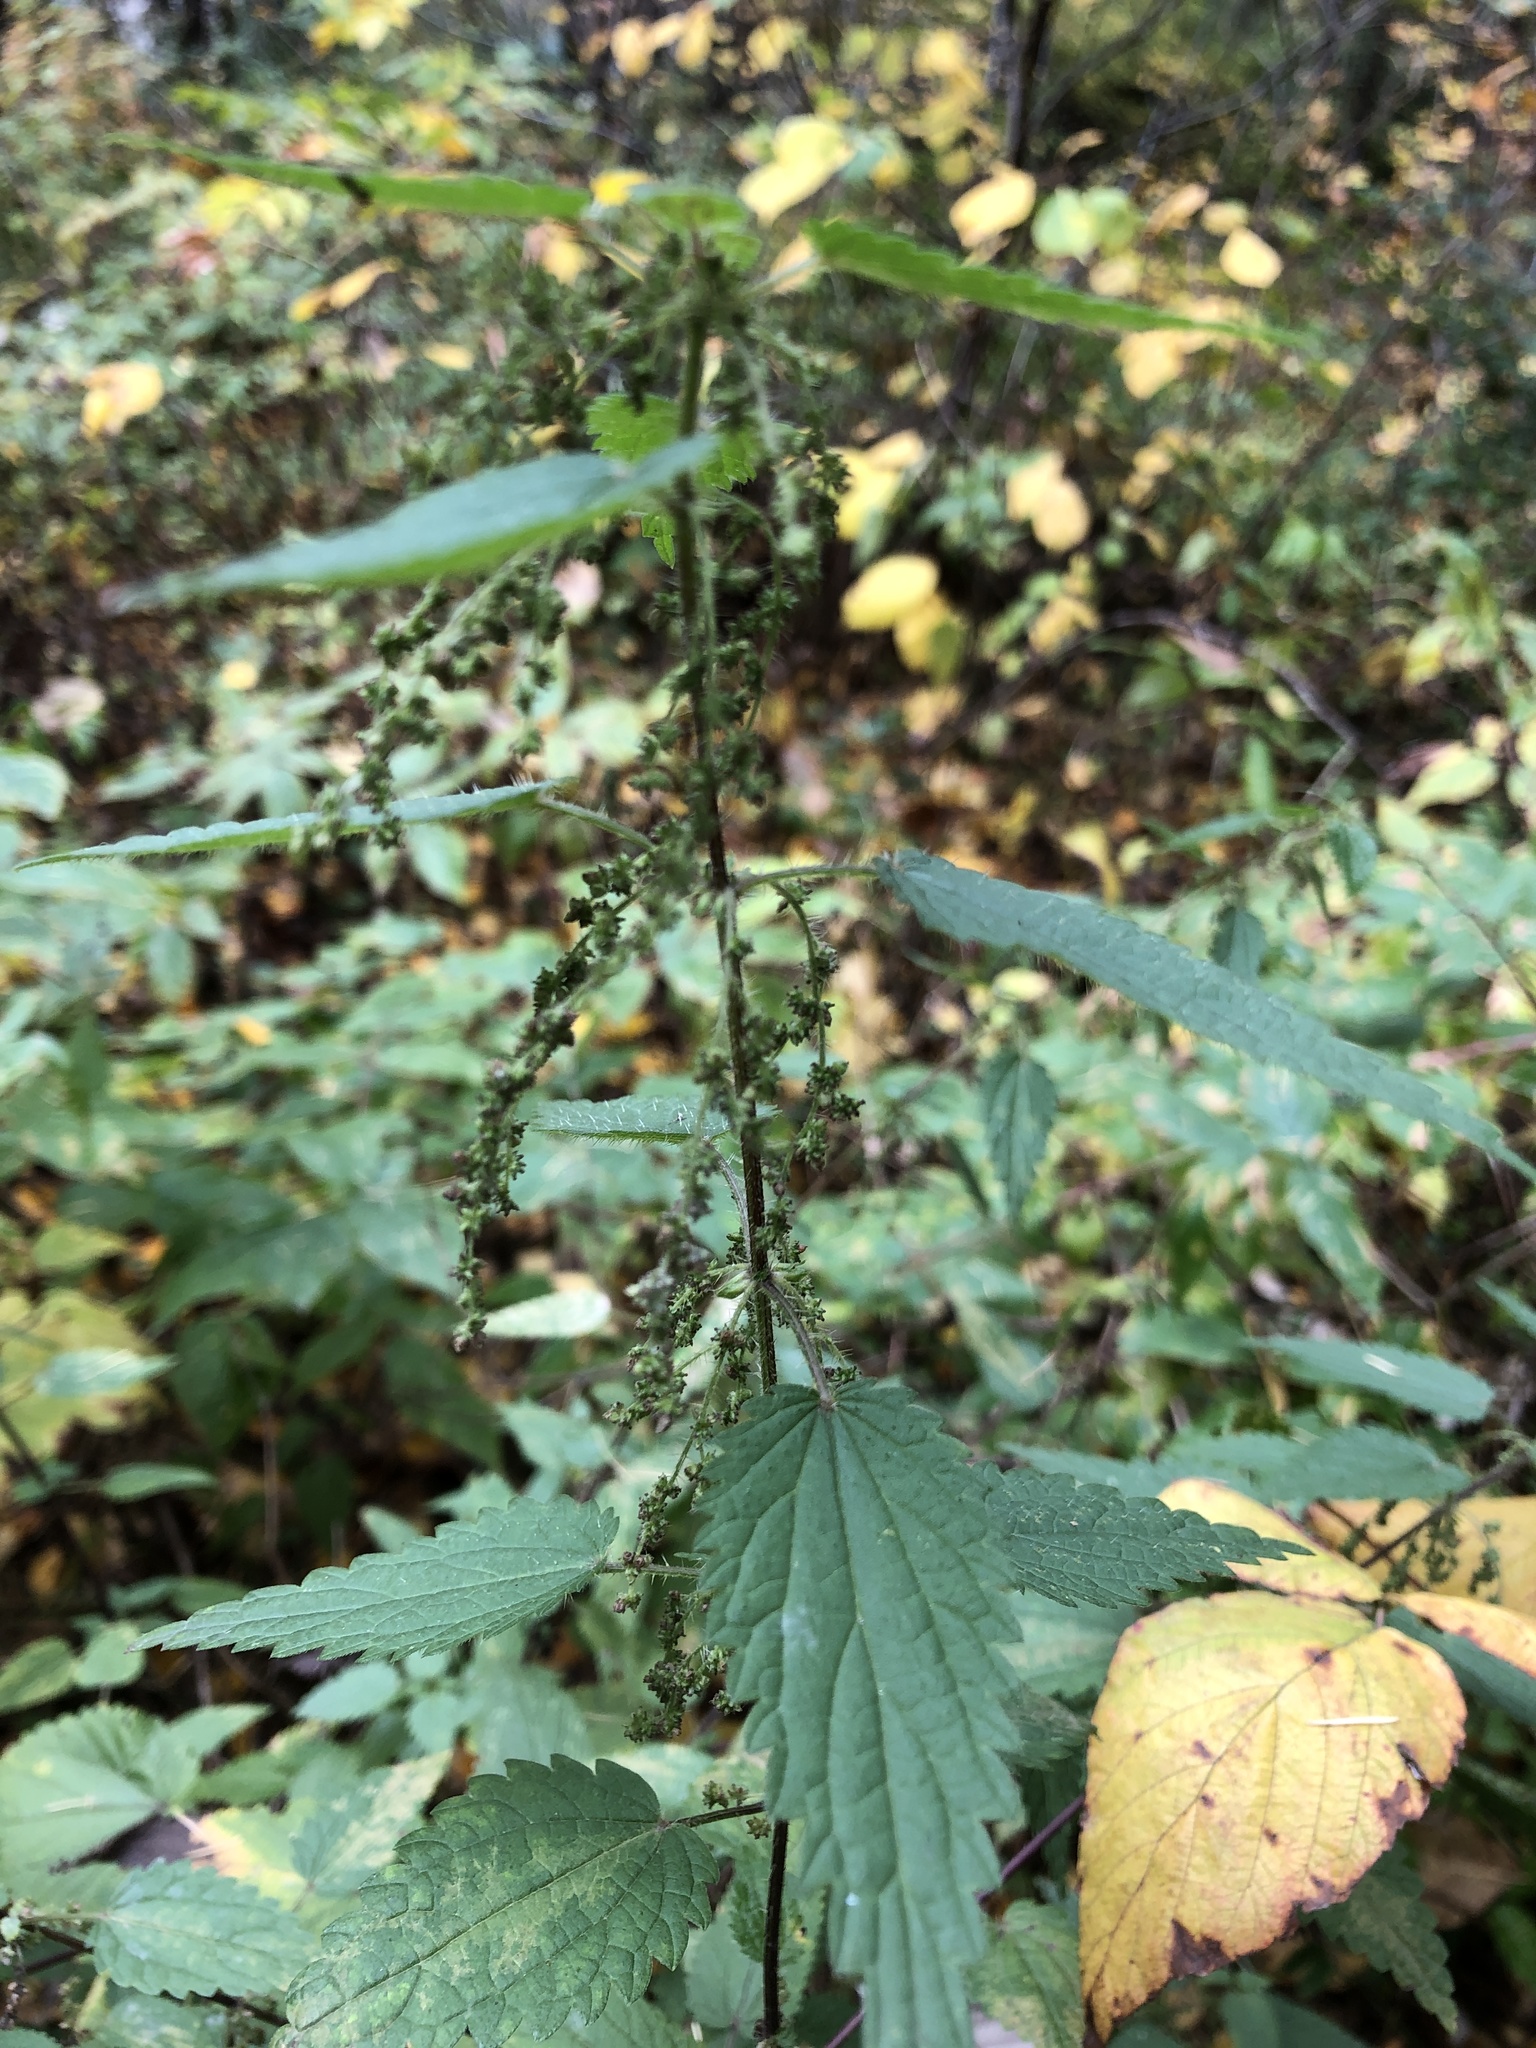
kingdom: Plantae
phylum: Tracheophyta
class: Magnoliopsida
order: Rosales
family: Urticaceae
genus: Urtica
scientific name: Urtica dioica
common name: Common nettle
